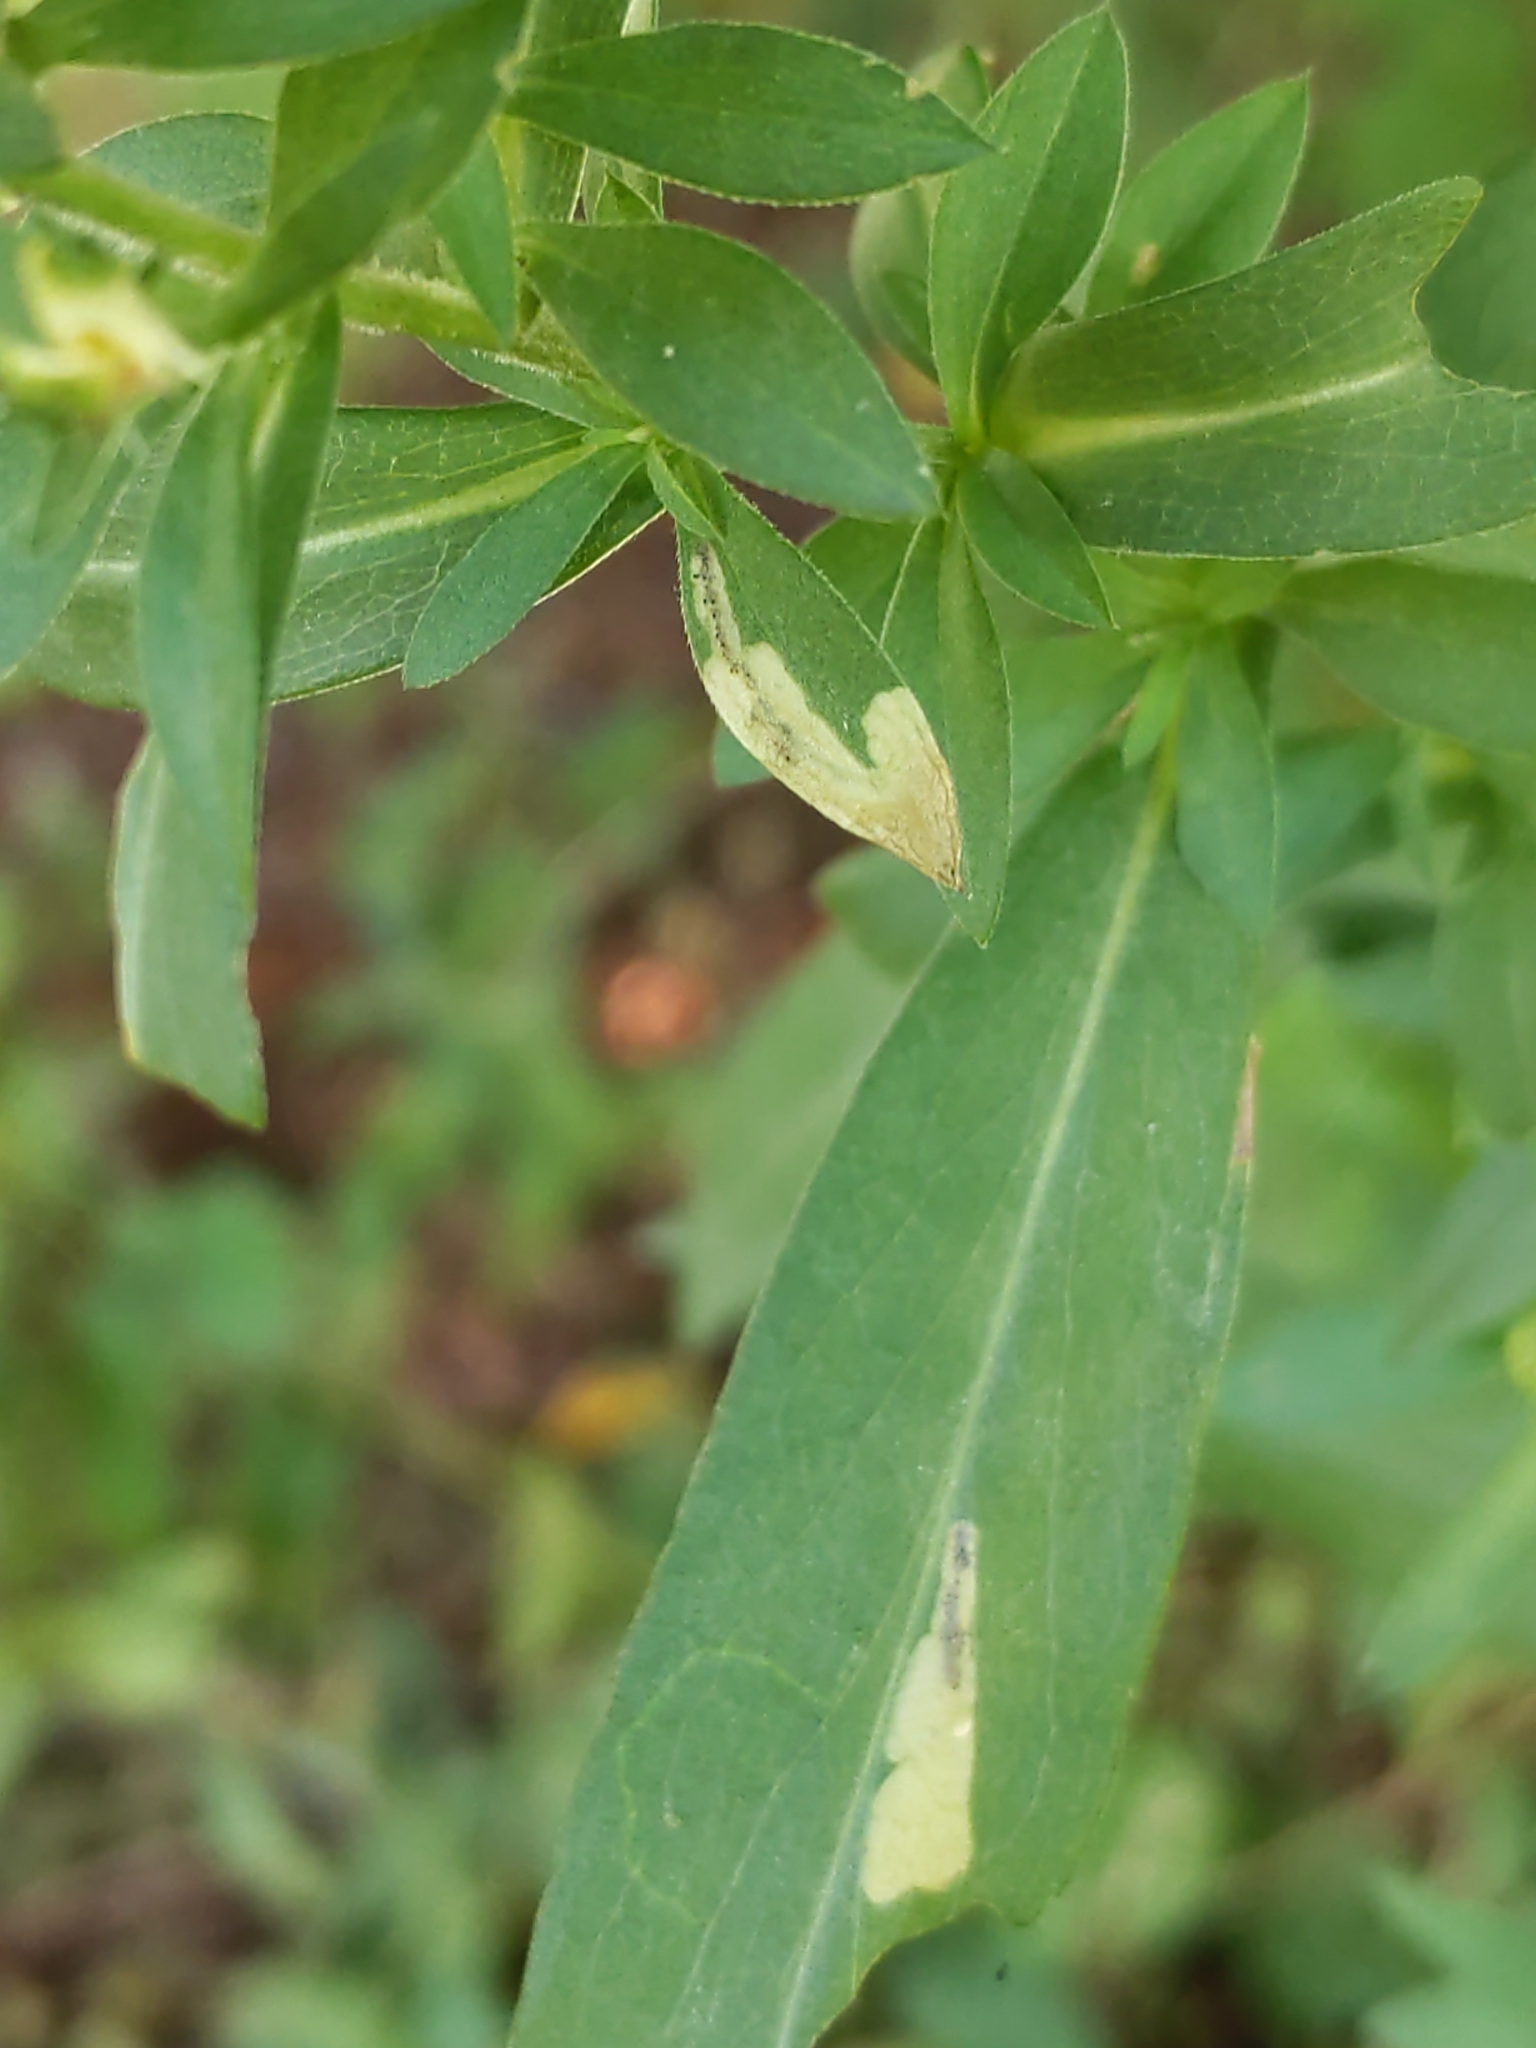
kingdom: Animalia
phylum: Arthropoda
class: Insecta
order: Lepidoptera
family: Bucculatricidae
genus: Bucculatrix
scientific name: Bucculatrix angustata
